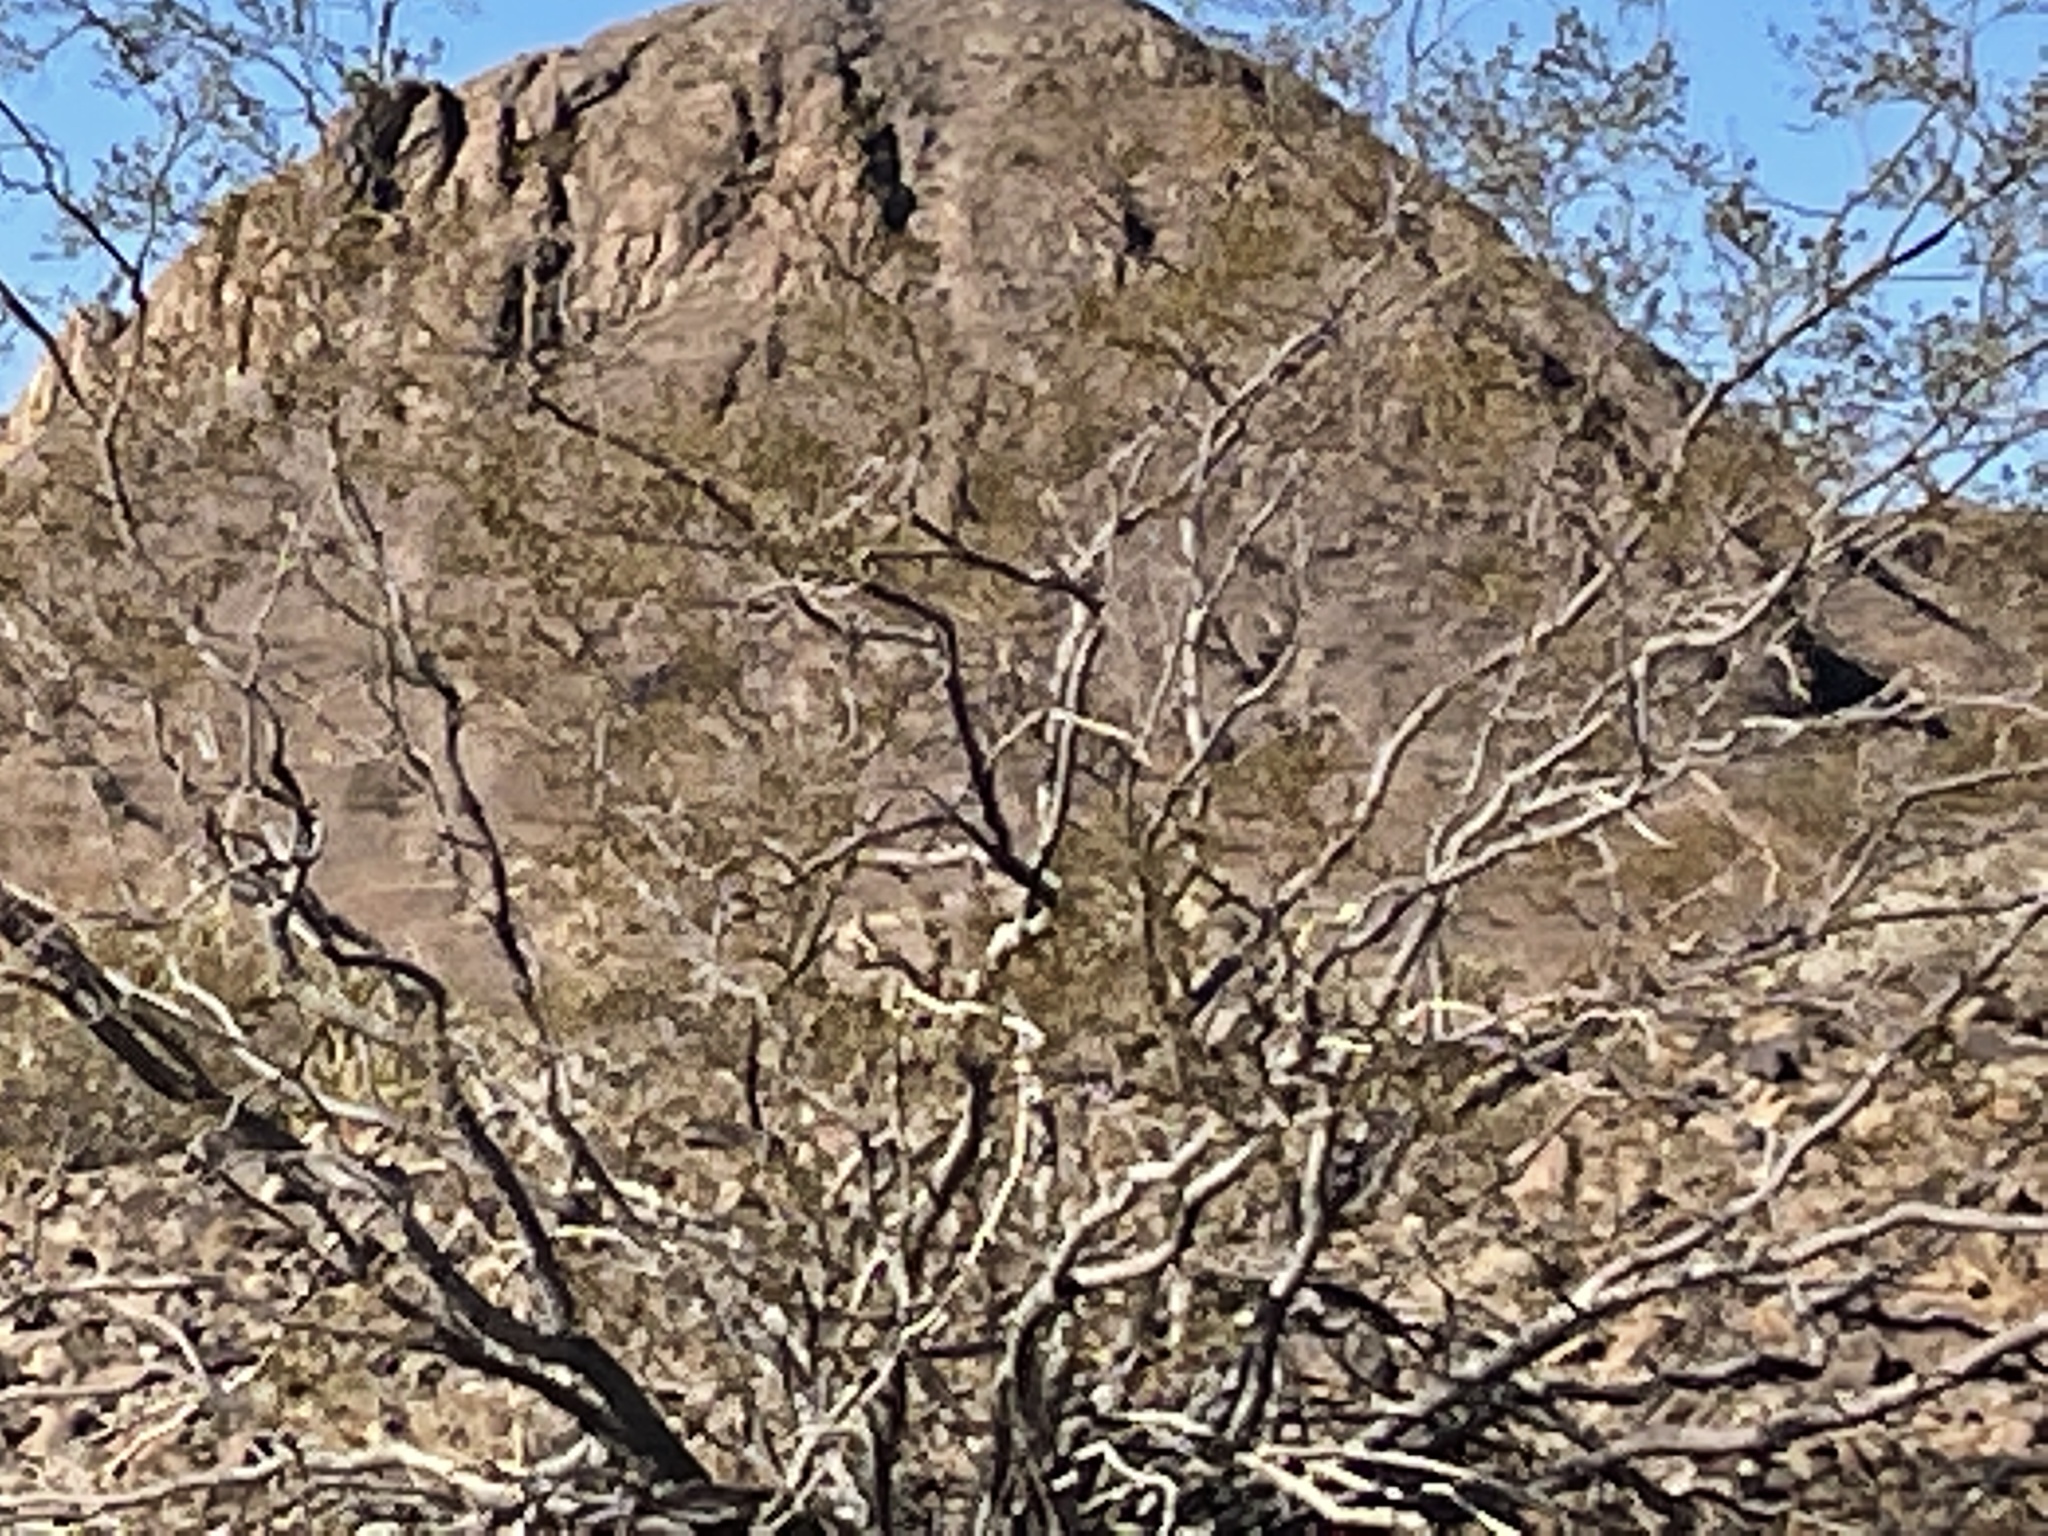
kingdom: Plantae
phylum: Tracheophyta
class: Magnoliopsida
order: Zygophyllales
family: Zygophyllaceae
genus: Larrea
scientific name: Larrea tridentata
